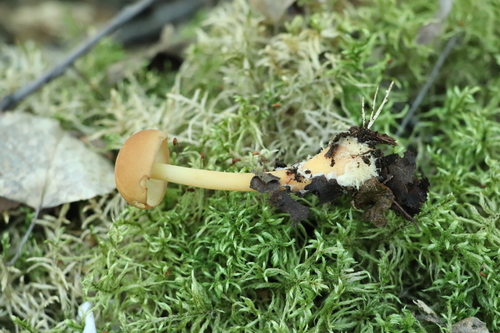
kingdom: Fungi
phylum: Basidiomycota
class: Agaricomycetes
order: Agaricales
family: Omphalotaceae
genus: Gymnopus
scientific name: Gymnopus dryophilus
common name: Penny top
